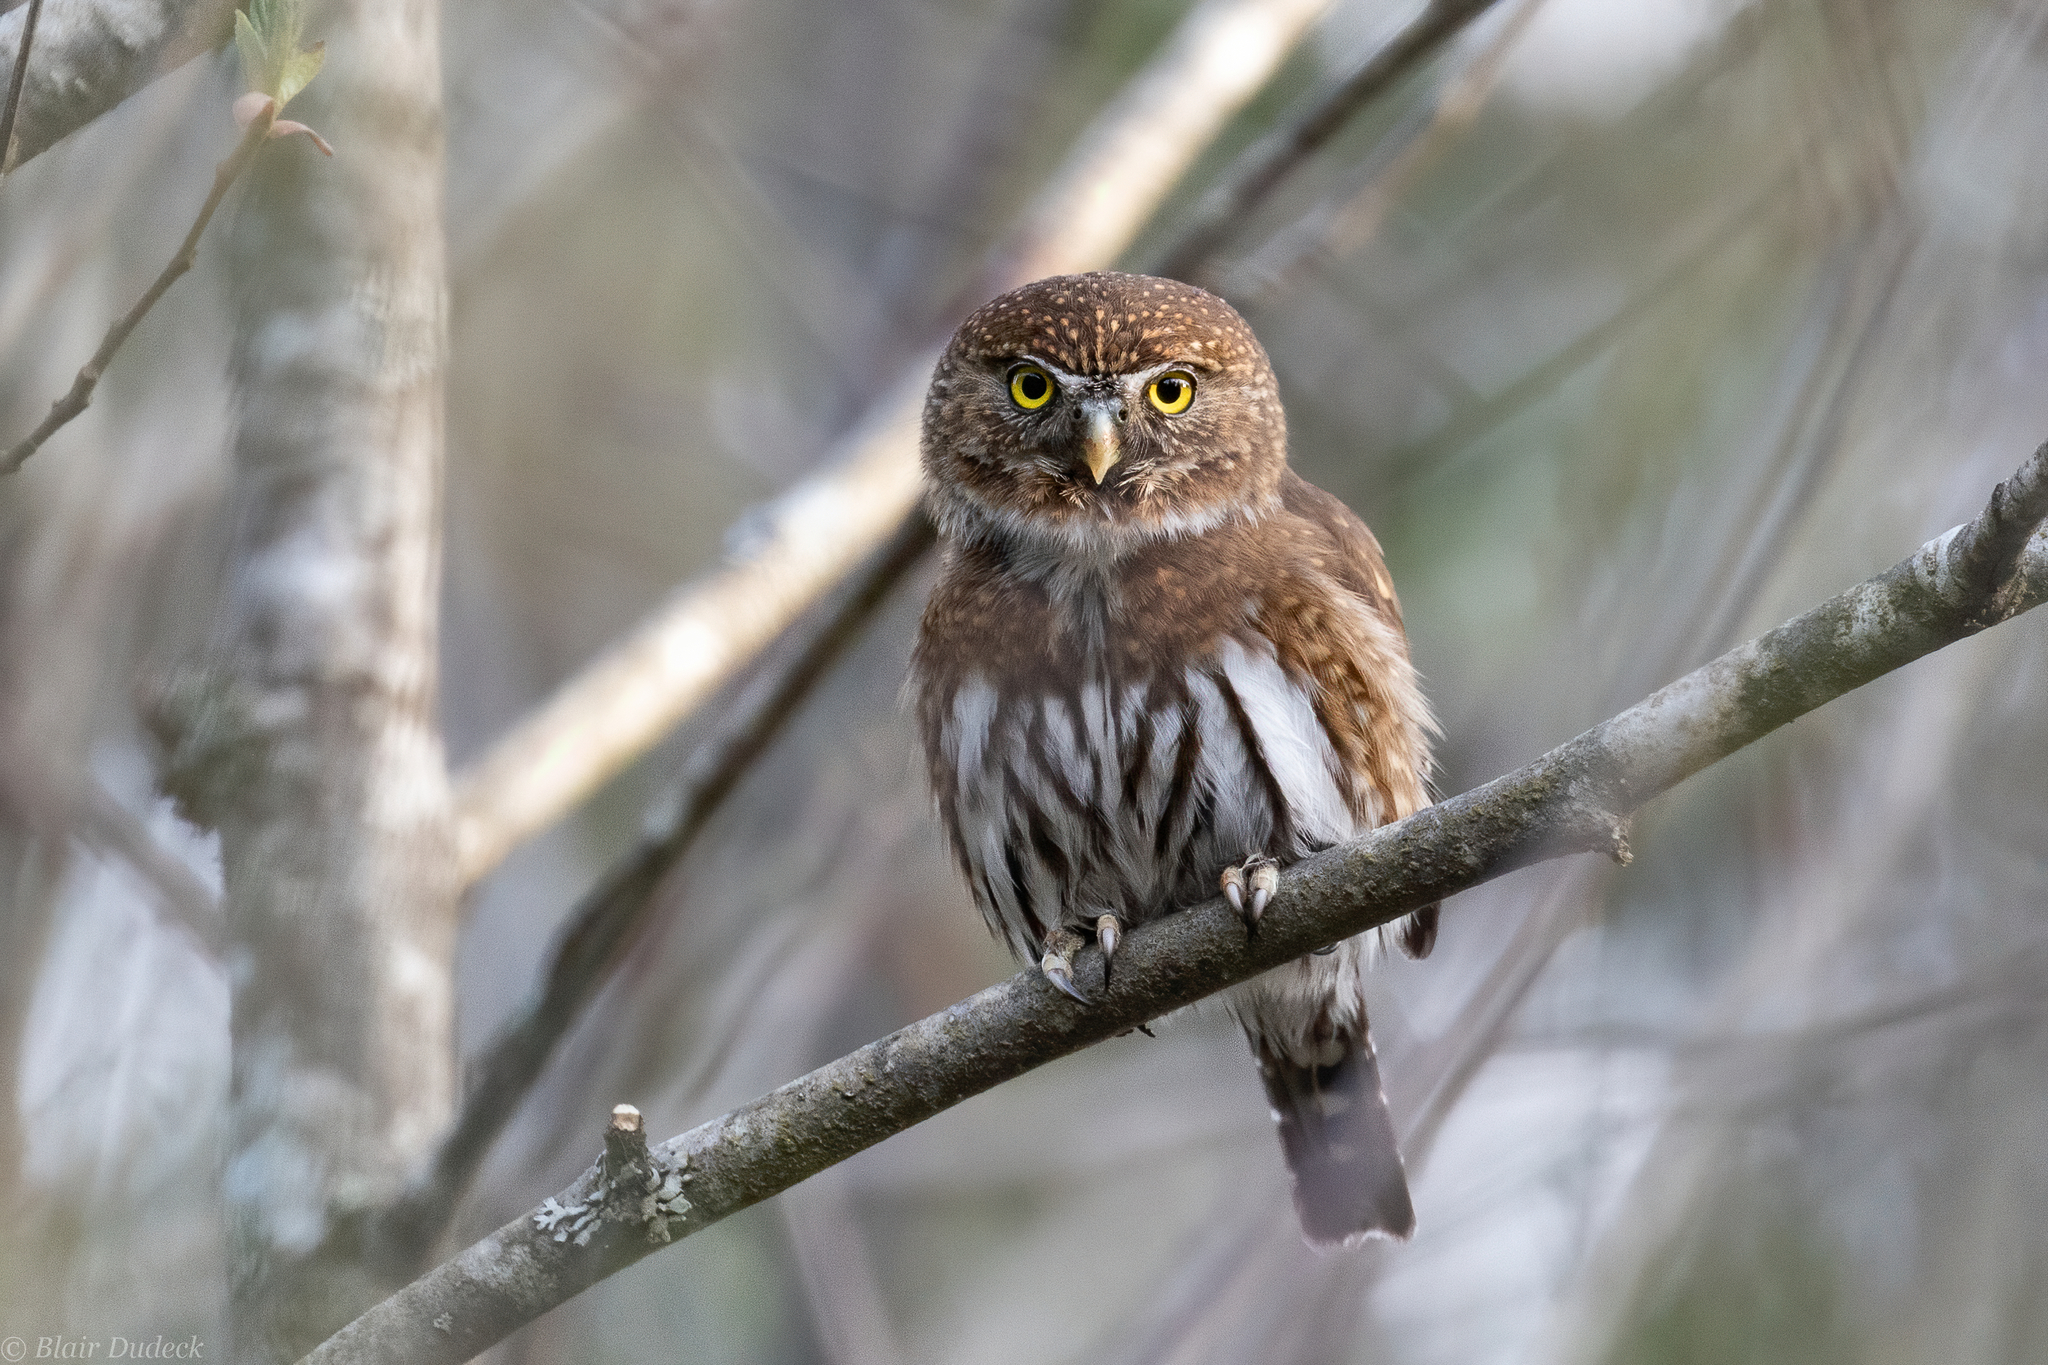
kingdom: Animalia
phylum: Chordata
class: Aves
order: Strigiformes
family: Strigidae
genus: Glaucidium
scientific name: Glaucidium californicum
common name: Northern pygmy owl
